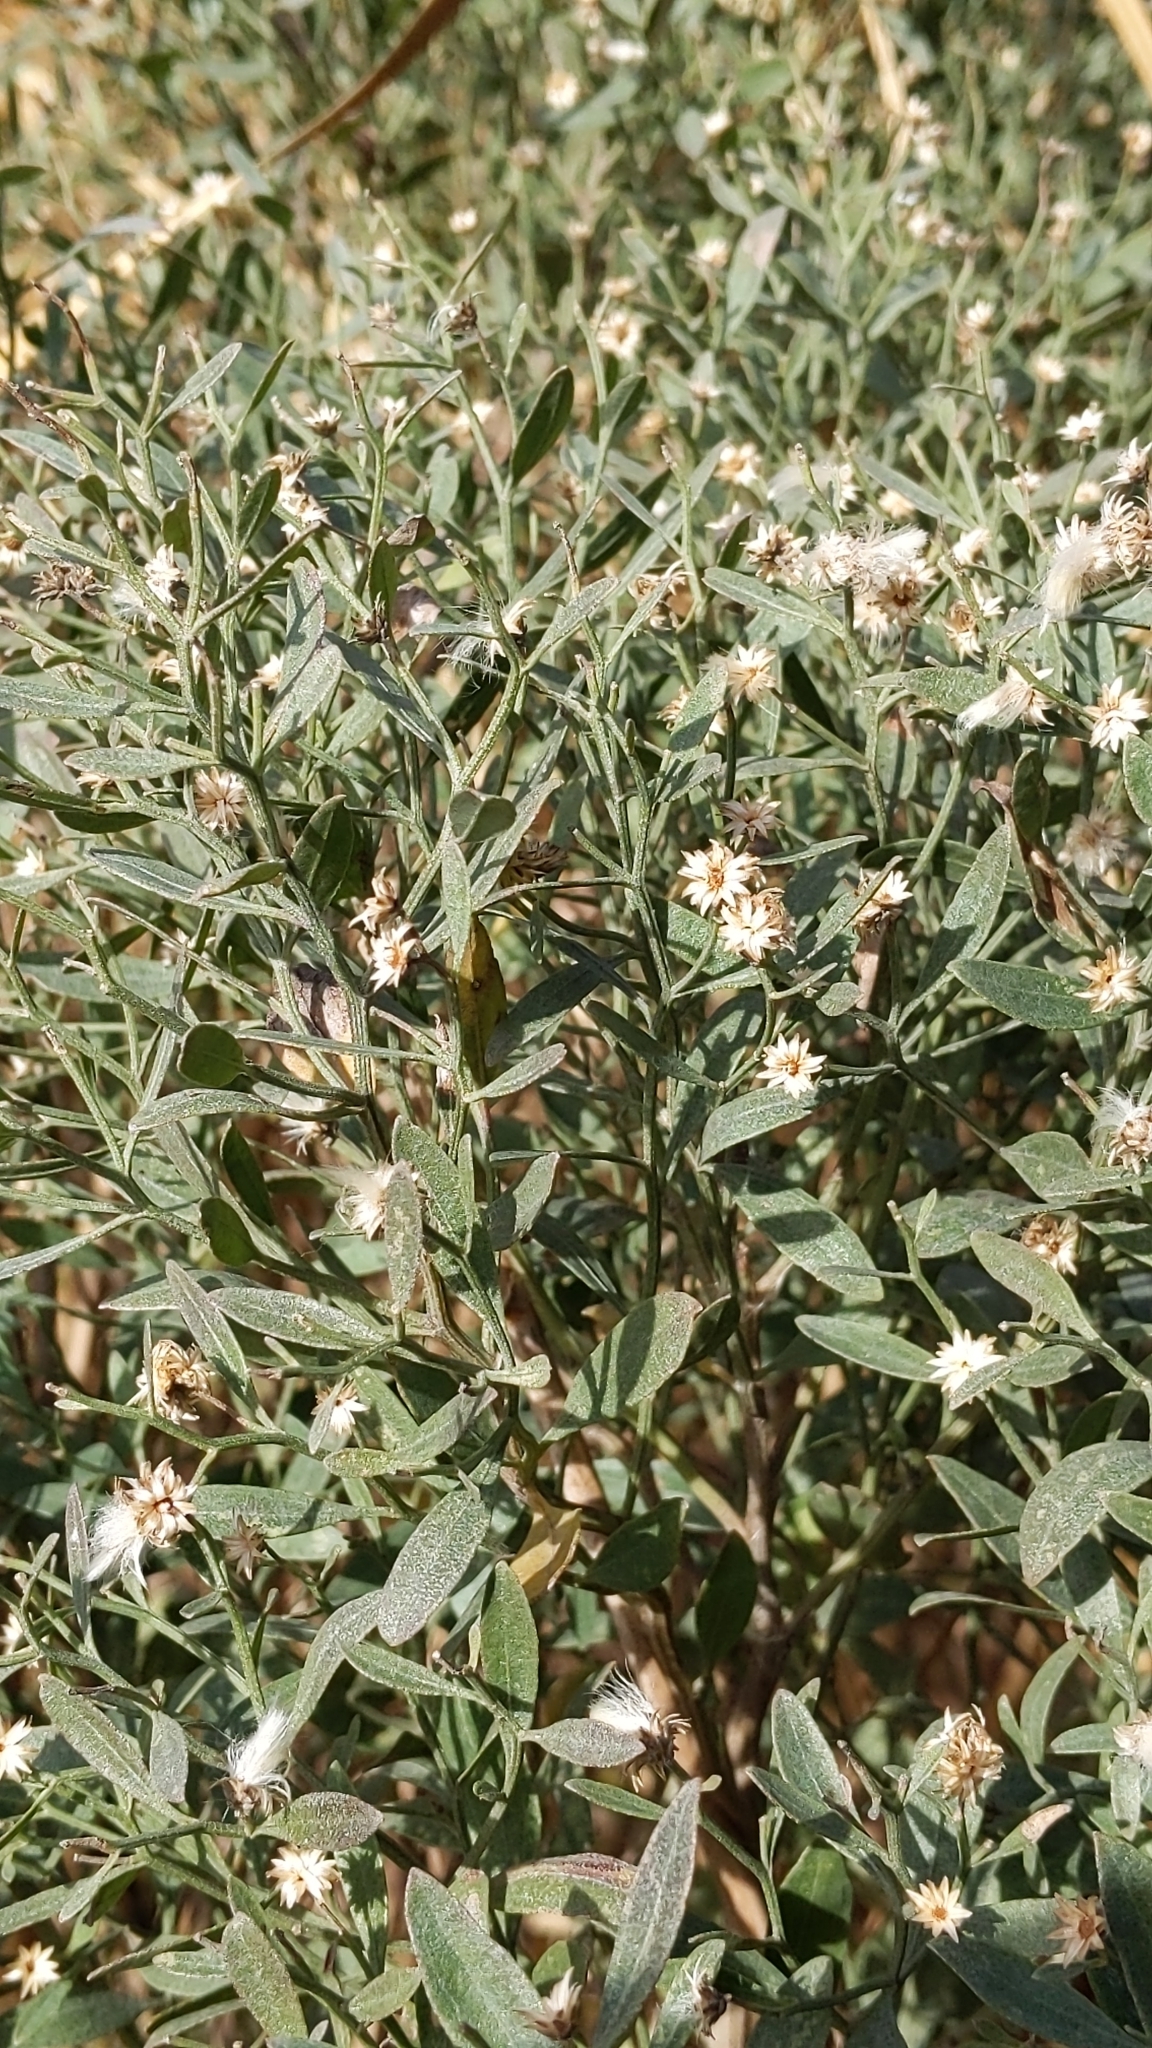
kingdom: Plantae
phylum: Tracheophyta
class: Magnoliopsida
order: Asterales
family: Asteraceae
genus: Baccharis
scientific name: Baccharis halimifolia
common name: Eastern baccharis
